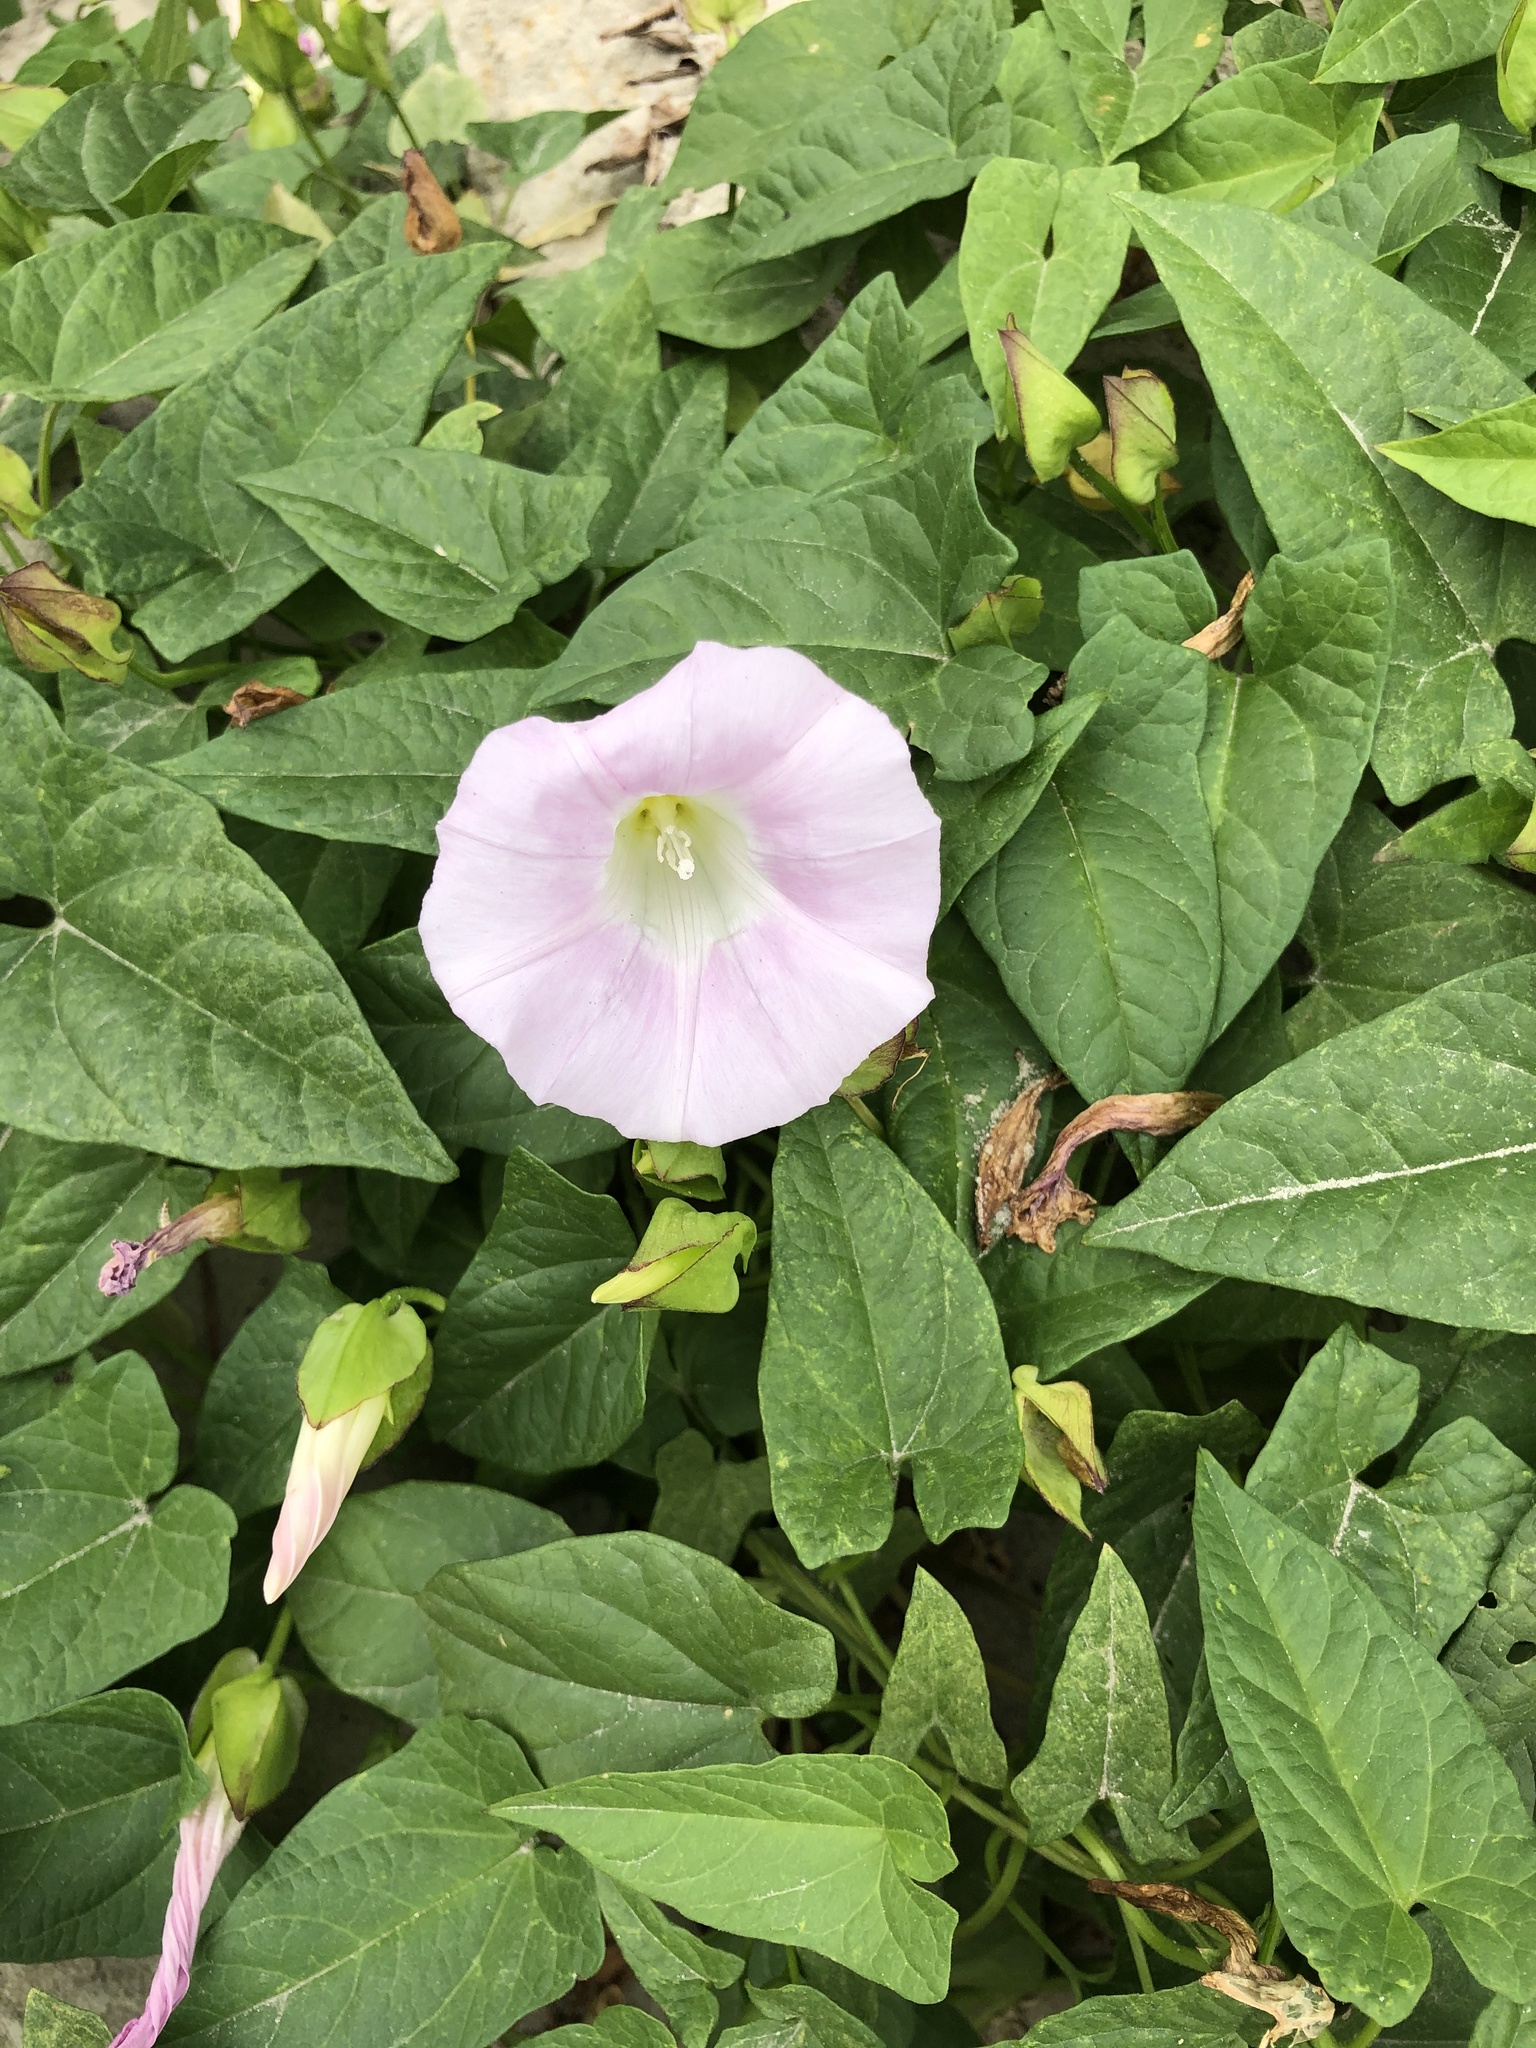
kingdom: Plantae
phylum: Tracheophyta
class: Magnoliopsida
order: Solanales
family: Convolvulaceae
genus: Calystegia
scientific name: Calystegia sepium
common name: Hedge bindweed
